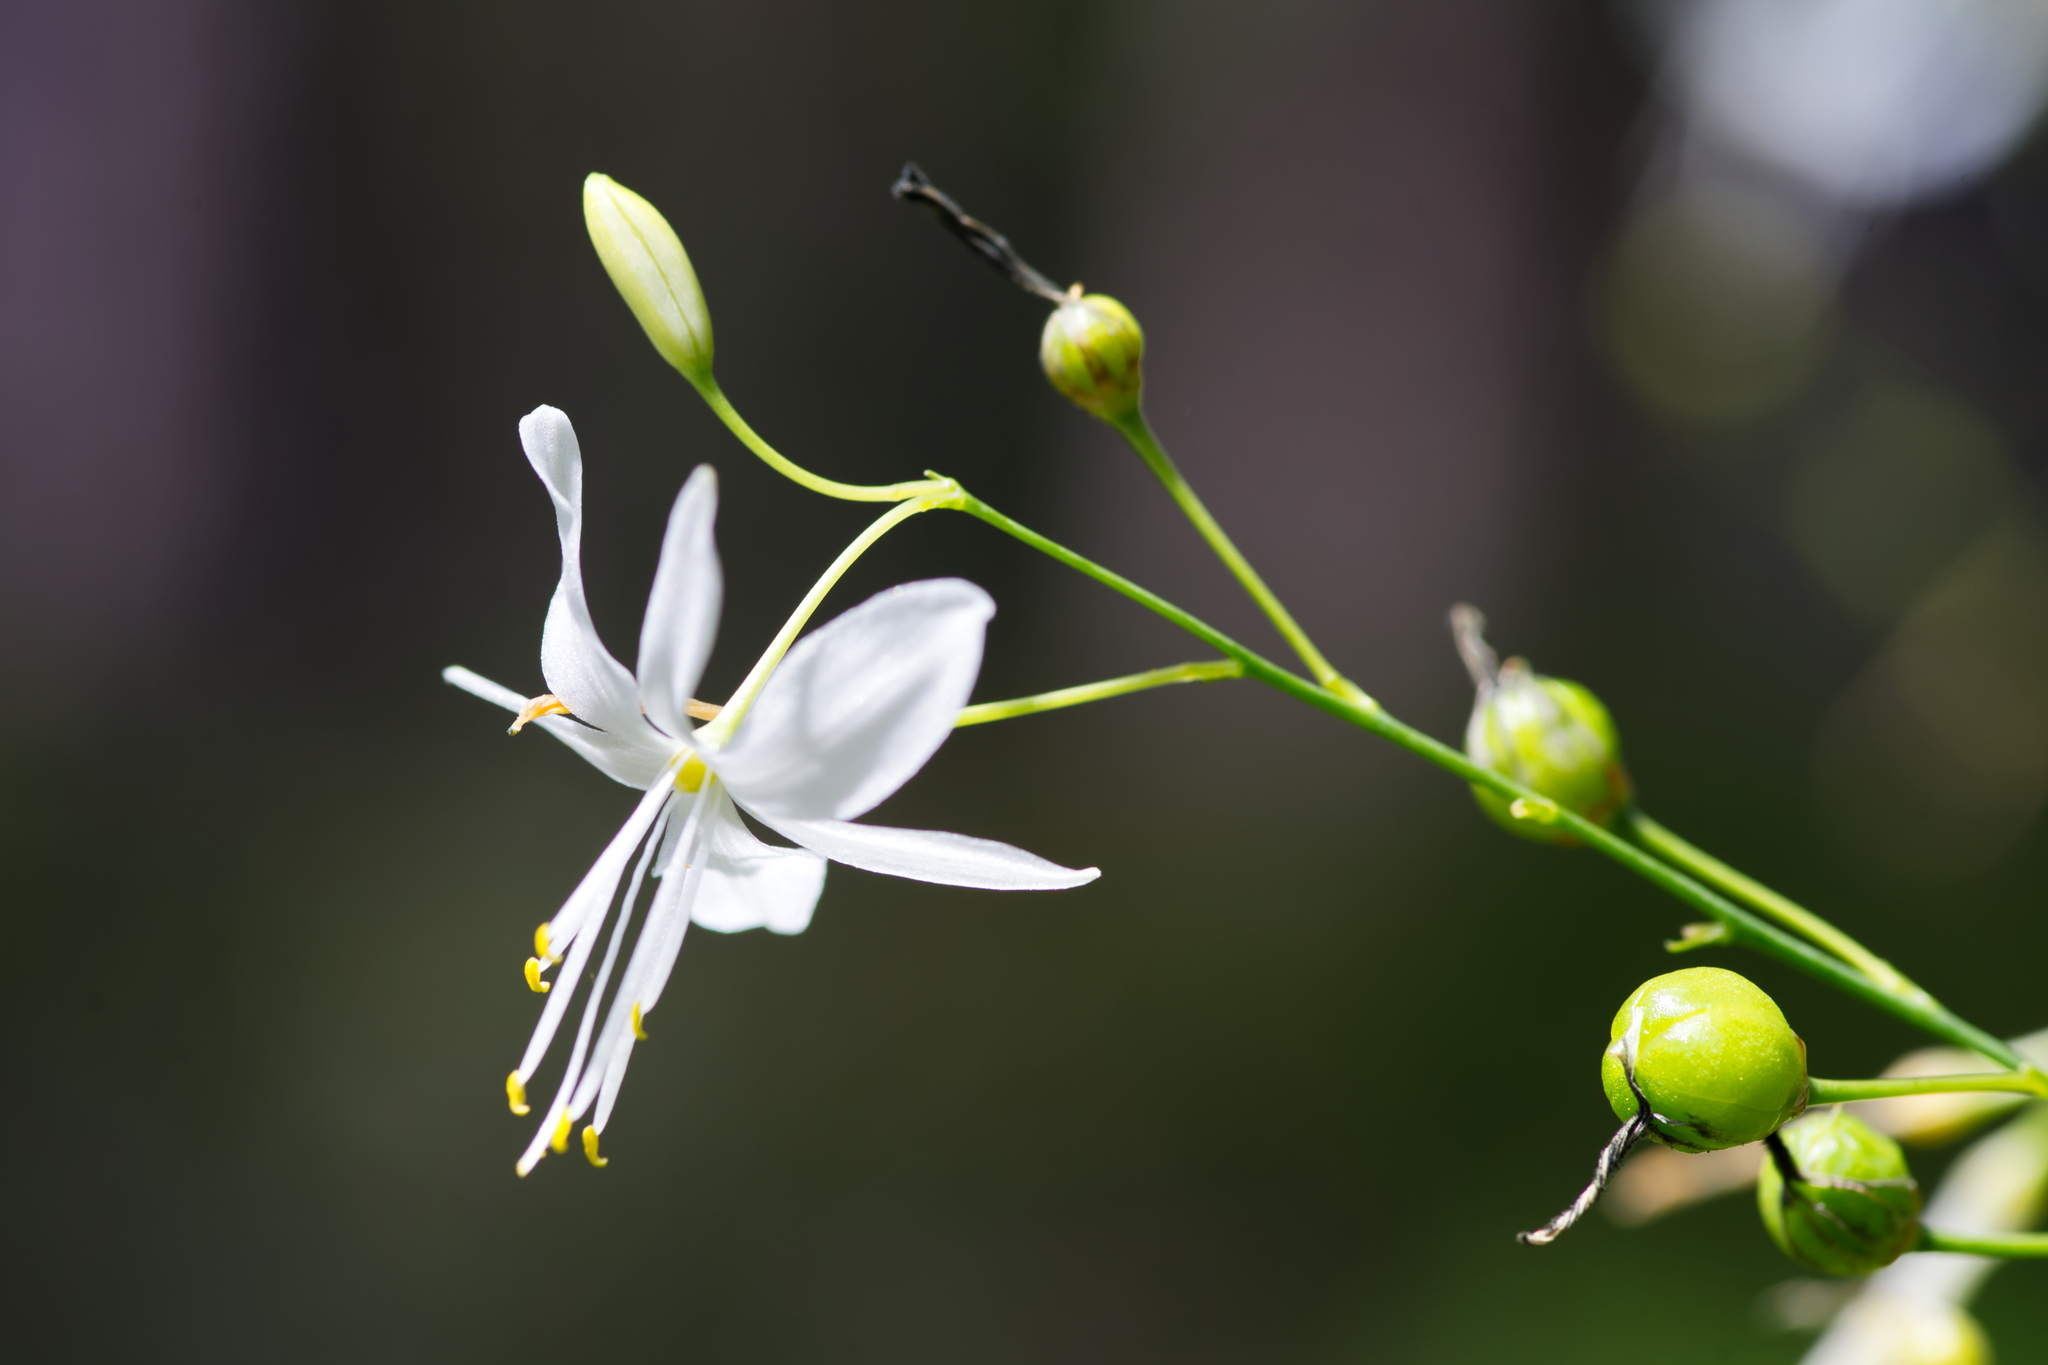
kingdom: Plantae
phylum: Tracheophyta
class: Liliopsida
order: Asparagales
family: Asparagaceae
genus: Anthericum
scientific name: Anthericum ramosum
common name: Branched st. bernard's-lily
